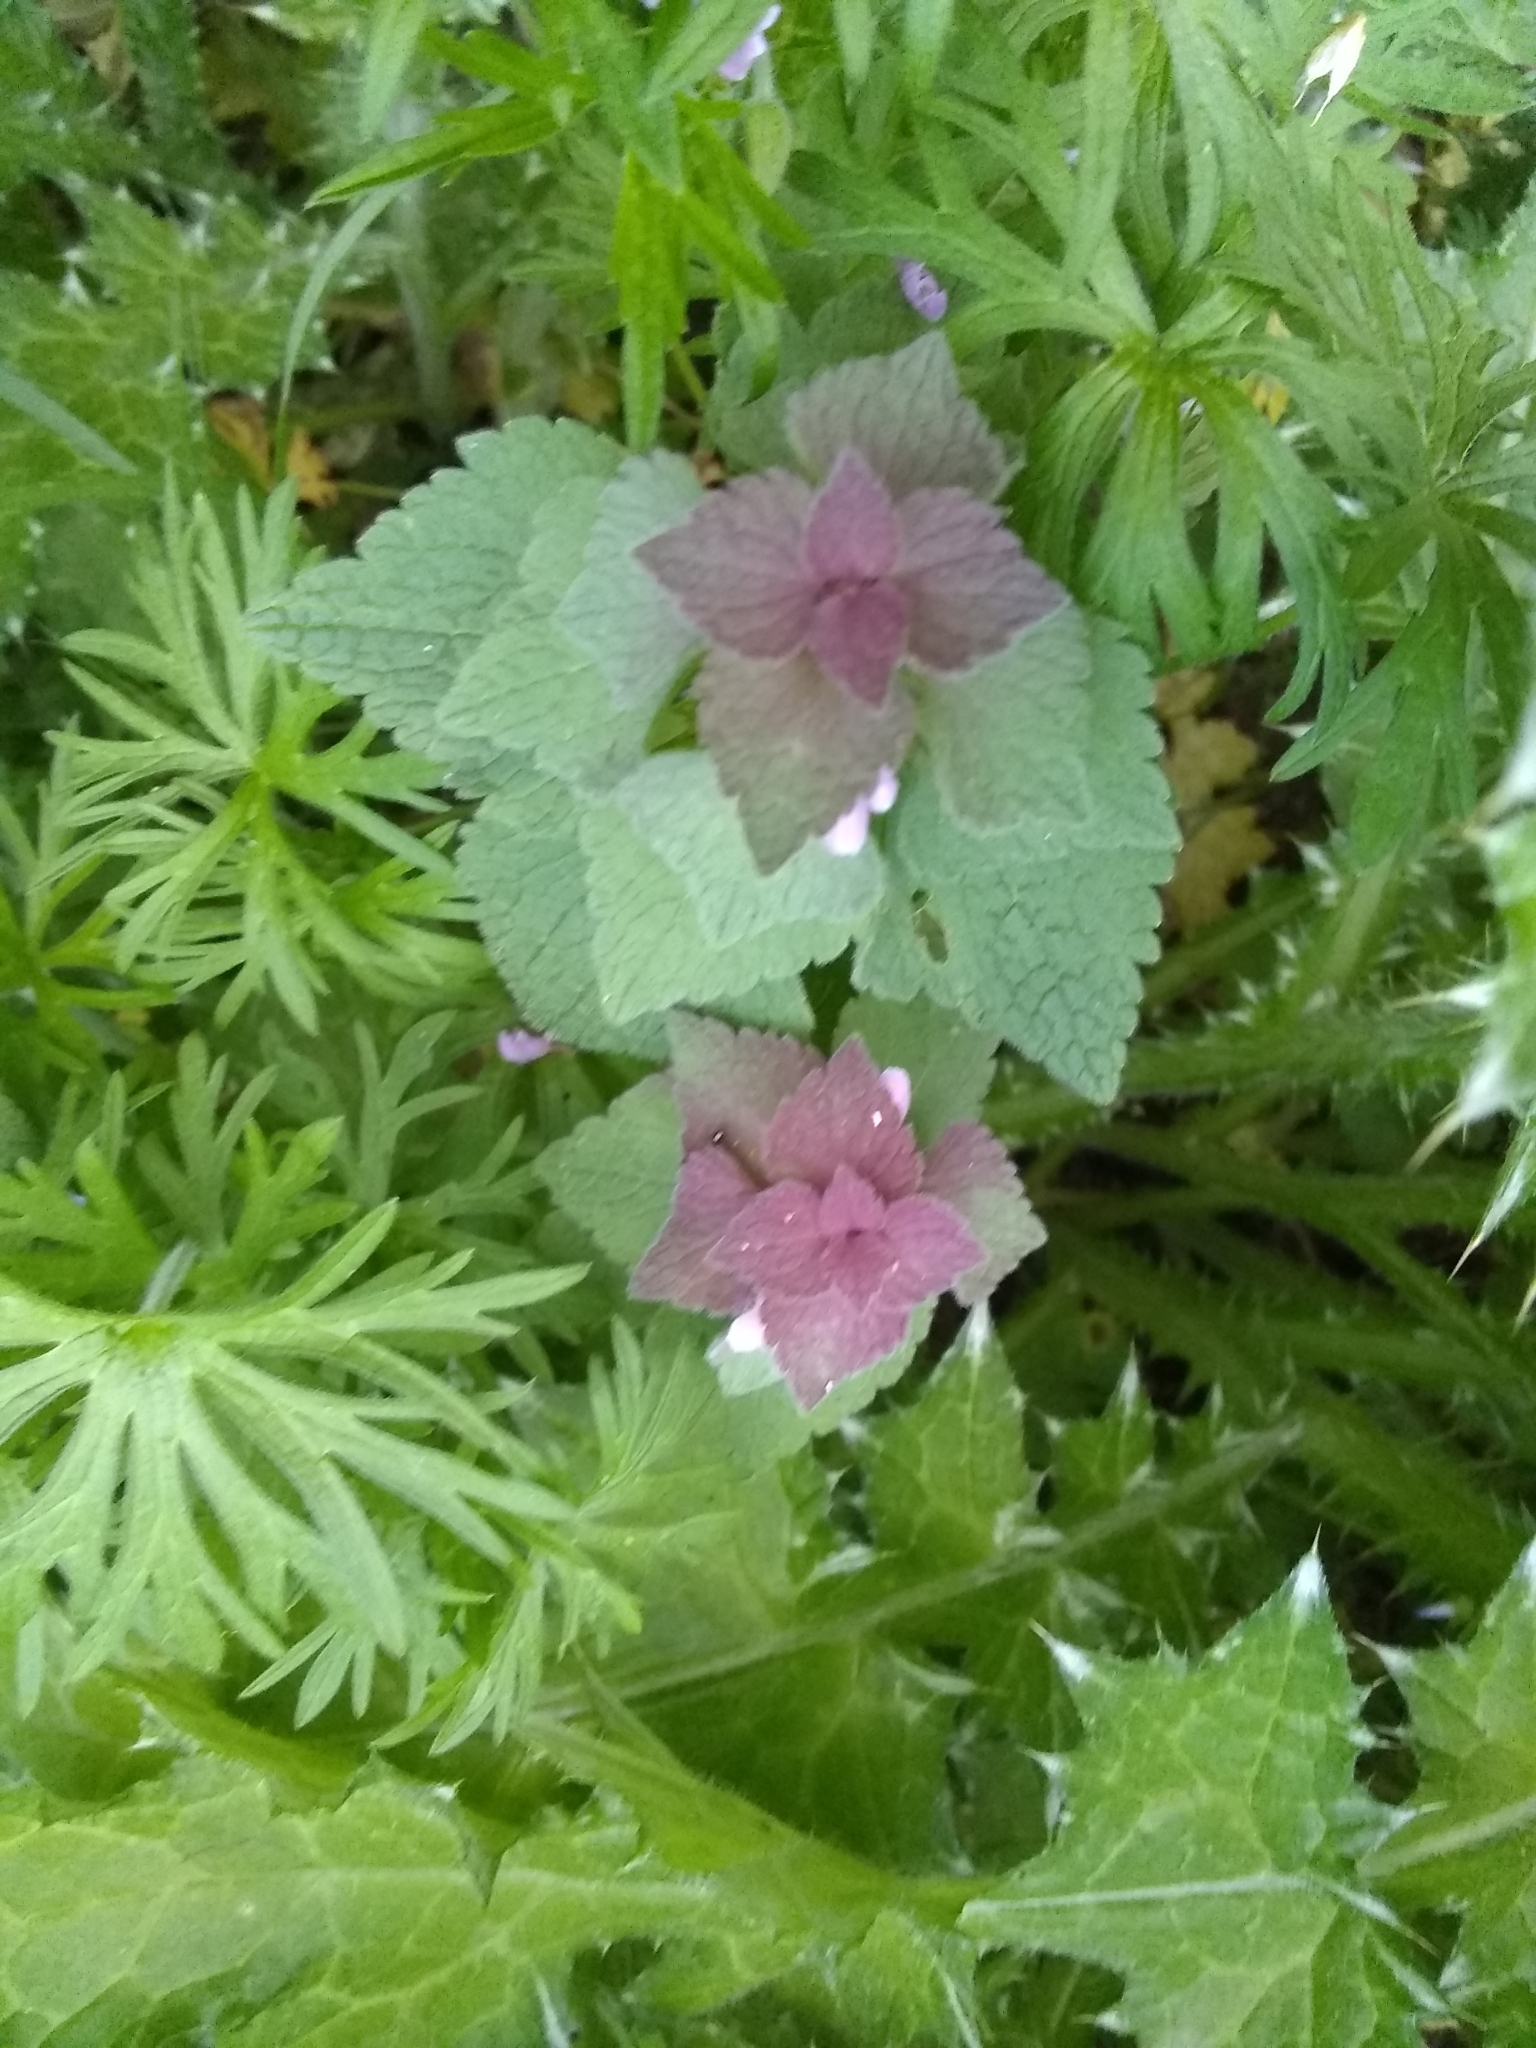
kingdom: Plantae
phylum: Tracheophyta
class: Magnoliopsida
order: Lamiales
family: Lamiaceae
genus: Lamium
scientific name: Lamium purpureum
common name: Red dead-nettle
